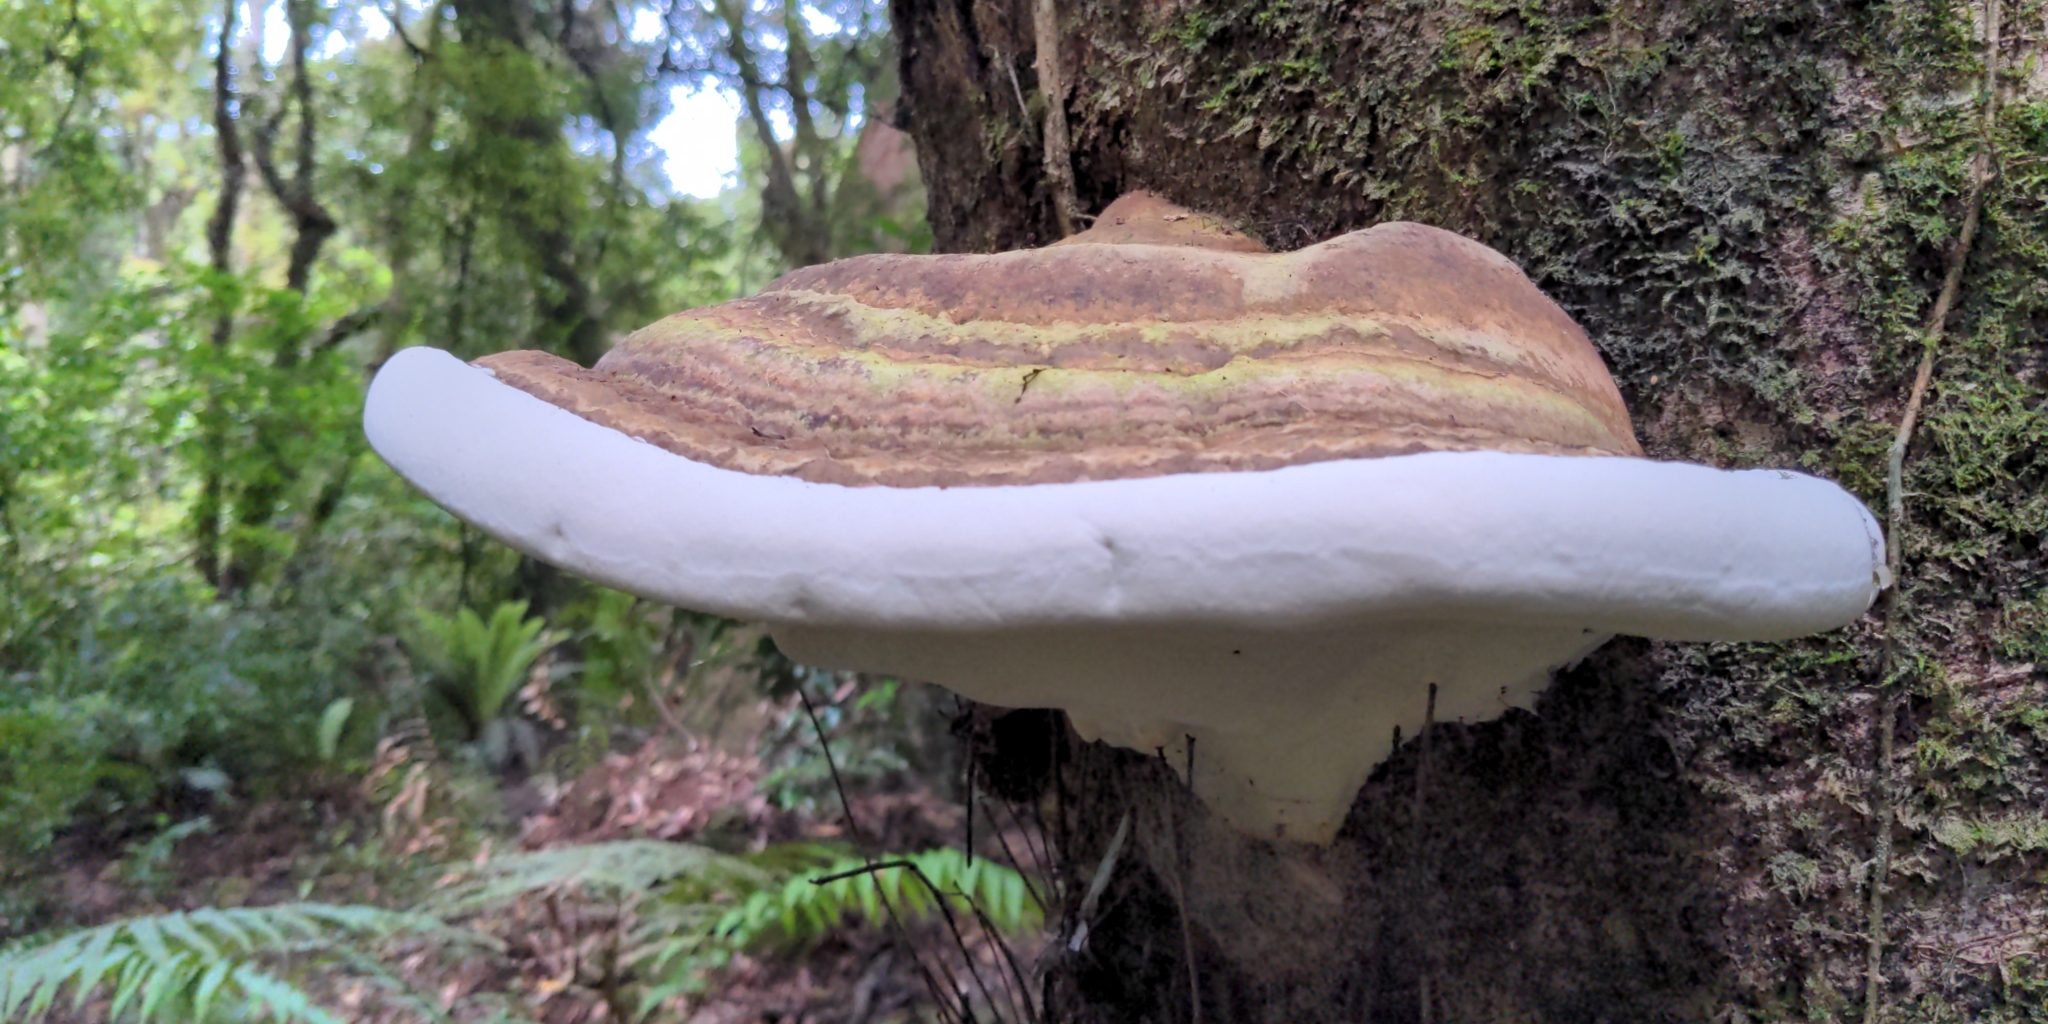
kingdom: Fungi
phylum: Basidiomycota
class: Agaricomycetes
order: Polyporales
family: Fomitopsidaceae
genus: Pilatoporus
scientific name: Pilatoporus hemitephrus
